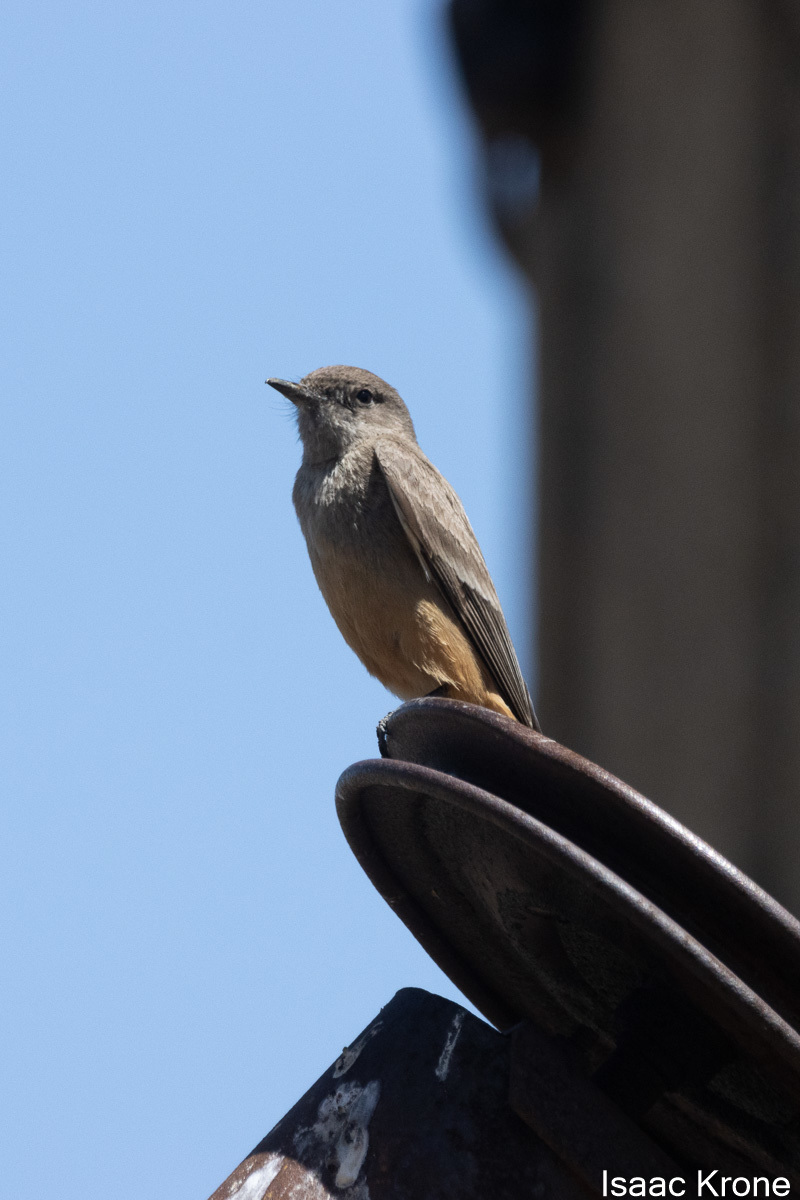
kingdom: Animalia
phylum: Chordata
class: Aves
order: Passeriformes
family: Tyrannidae
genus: Sayornis
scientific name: Sayornis saya
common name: Say's phoebe
